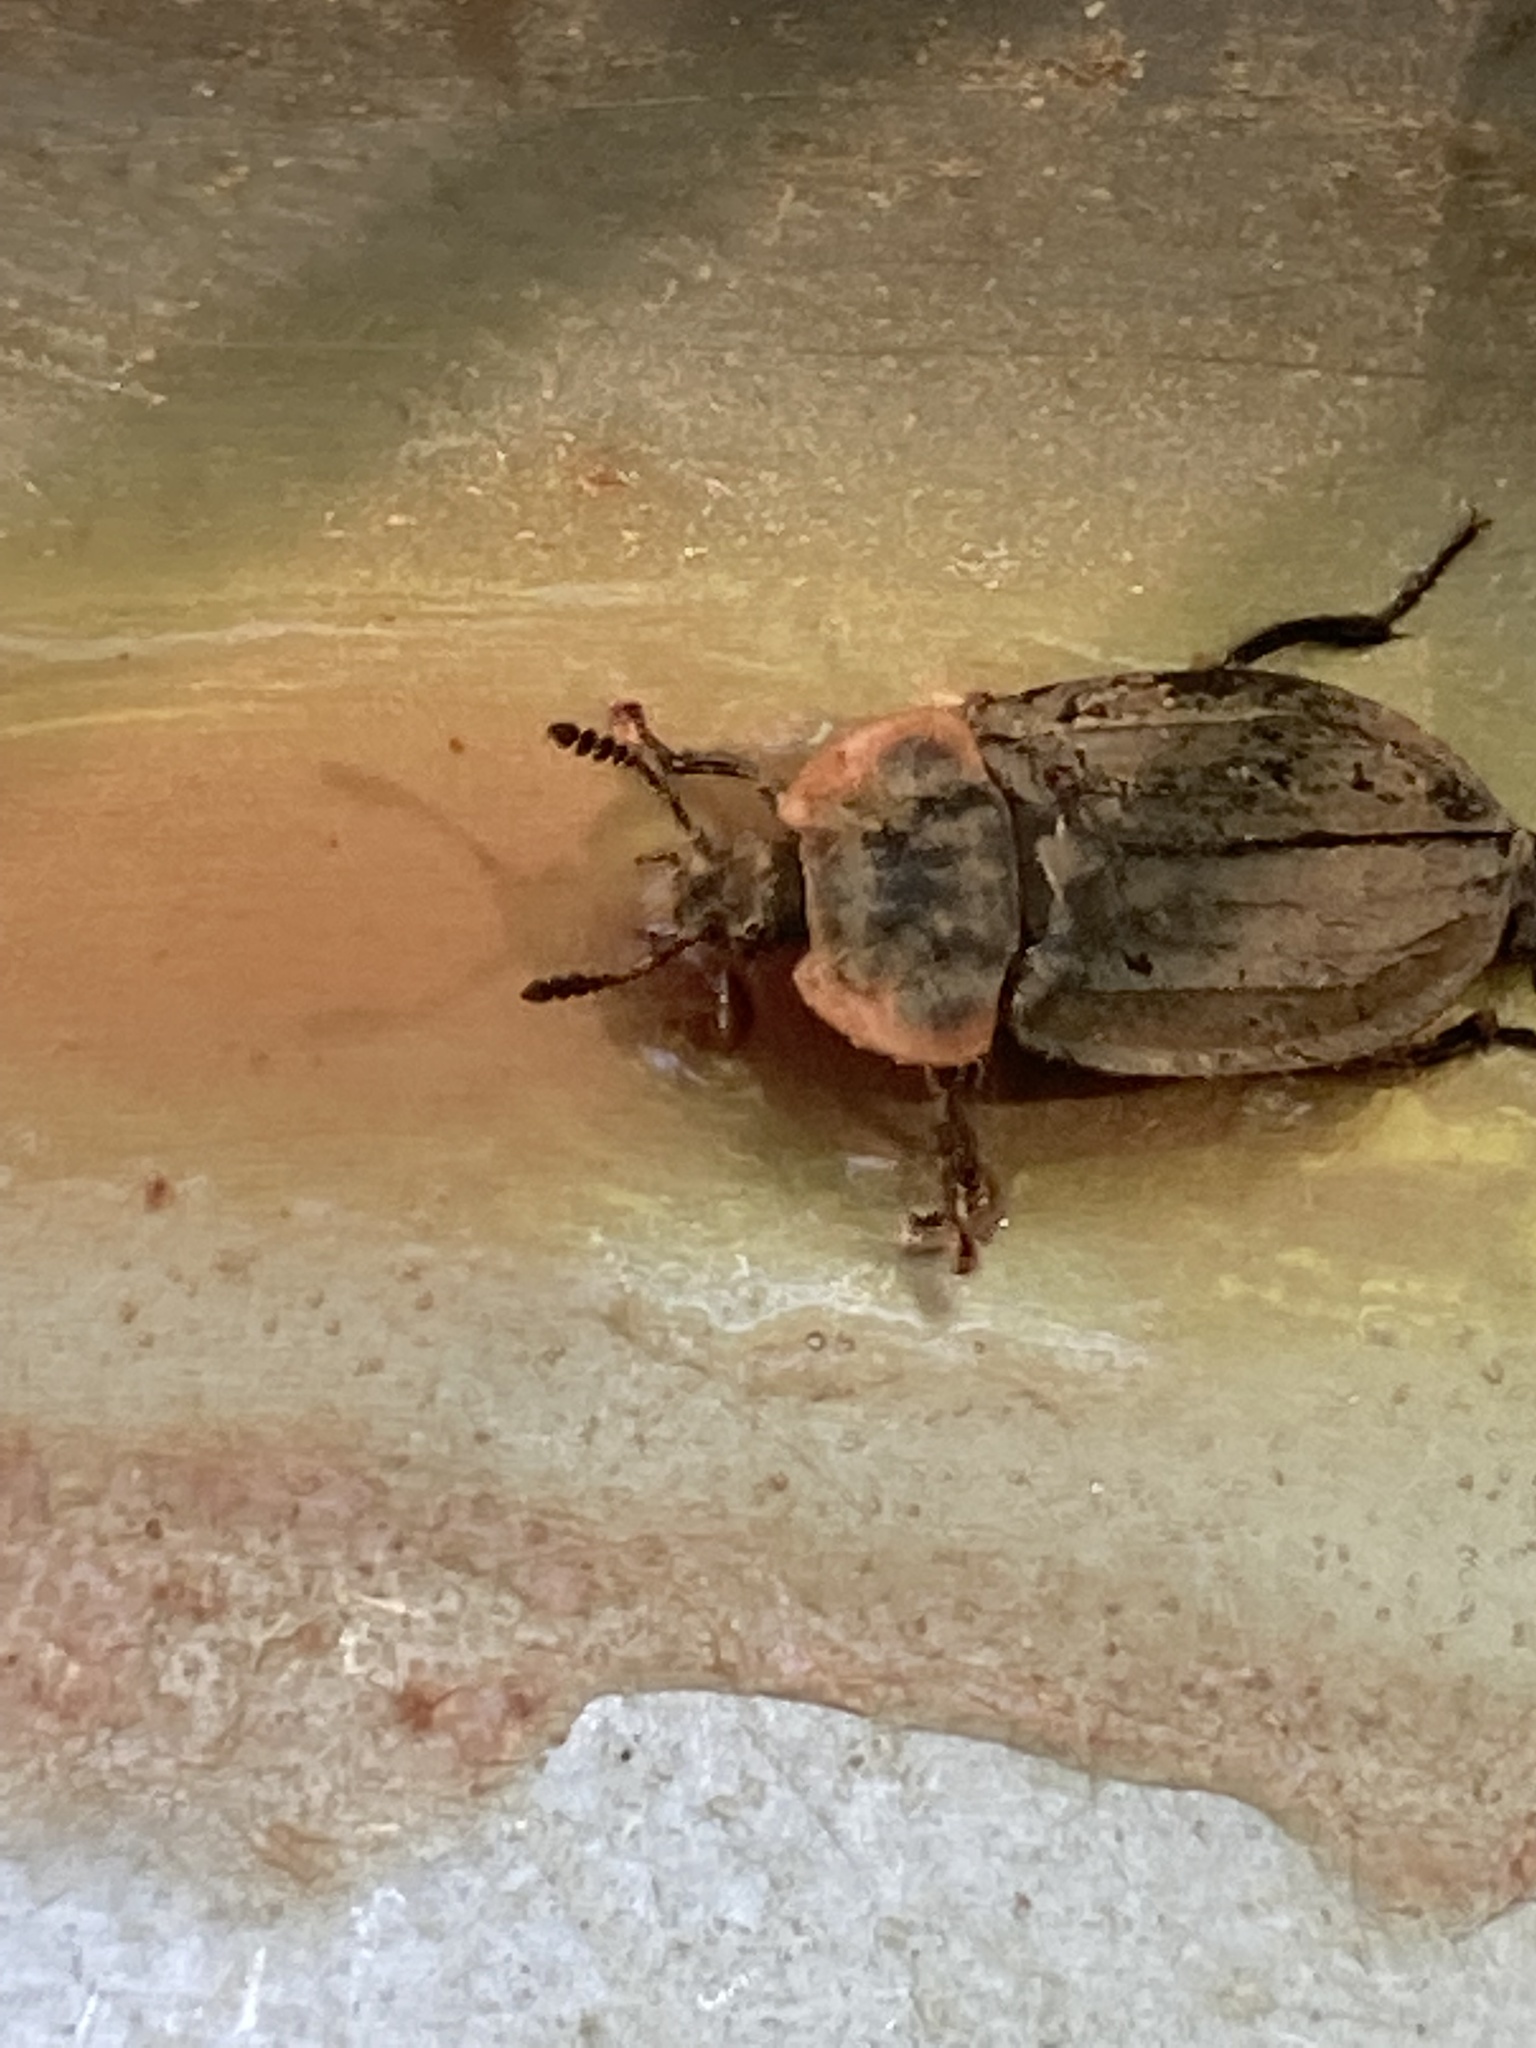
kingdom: Animalia
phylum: Arthropoda
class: Insecta
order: Coleoptera
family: Staphylinidae
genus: Oiceoptoma
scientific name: Oiceoptoma noveboracense
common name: Margined carrion beetle
